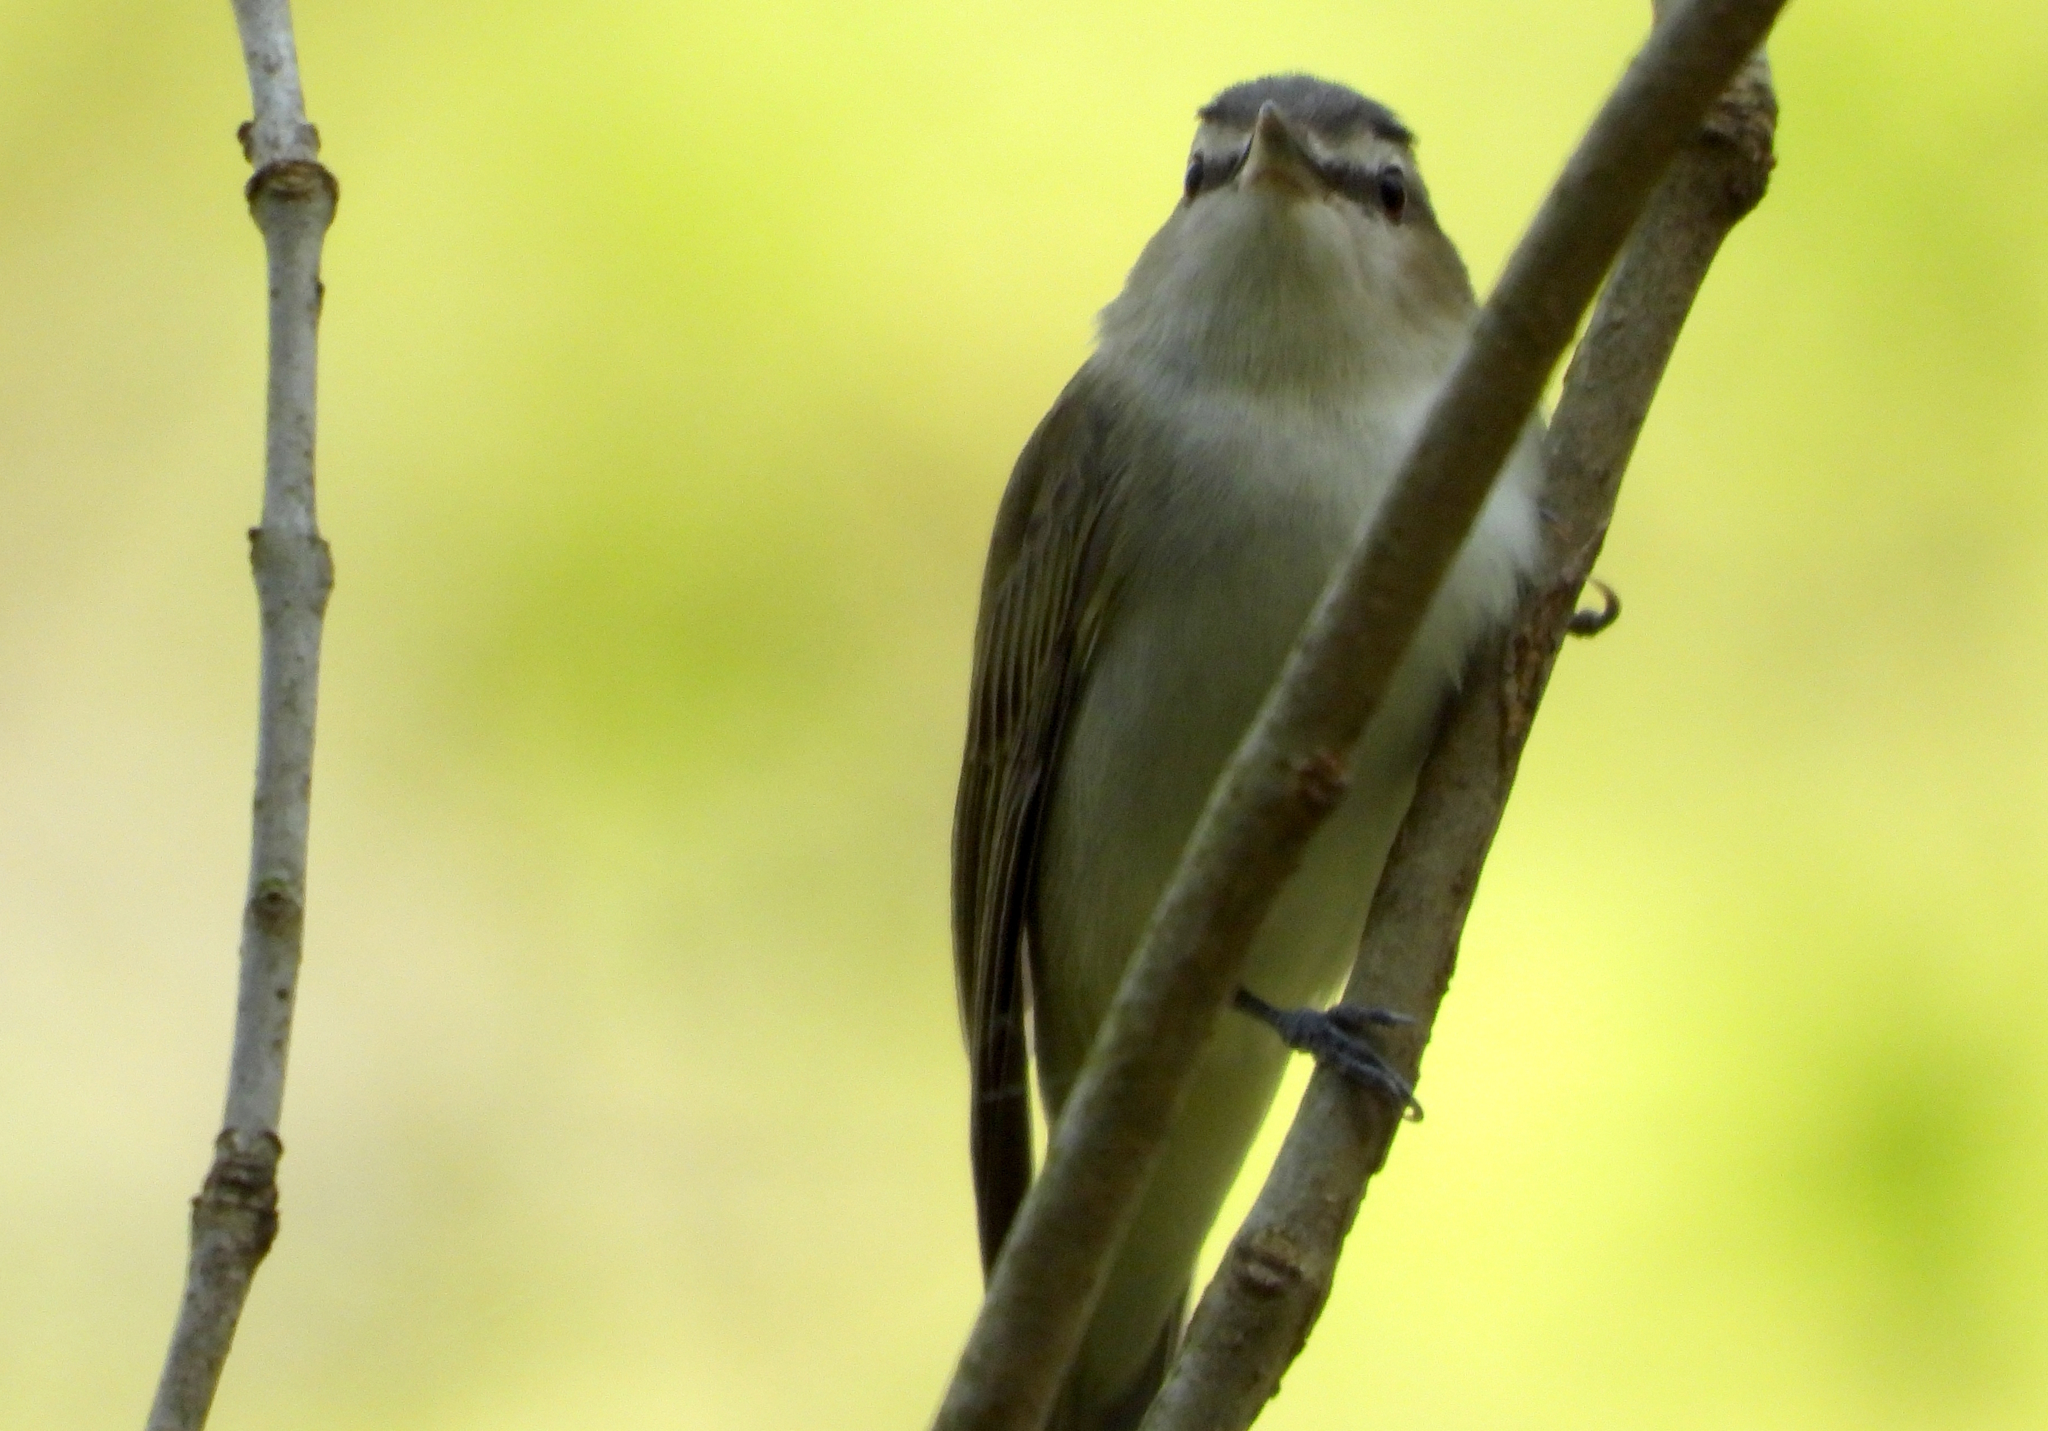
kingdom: Animalia
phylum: Chordata
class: Aves
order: Passeriformes
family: Vireonidae
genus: Vireo
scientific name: Vireo olivaceus
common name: Red-eyed vireo
